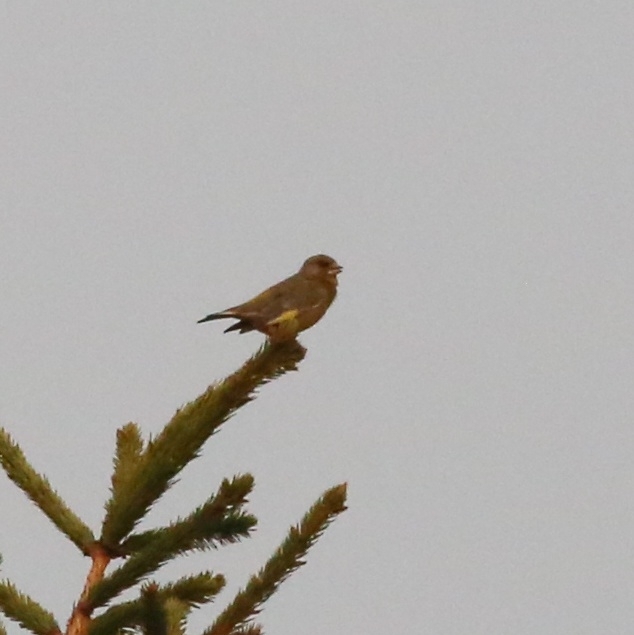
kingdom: Plantae
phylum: Tracheophyta
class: Liliopsida
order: Poales
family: Poaceae
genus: Chloris
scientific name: Chloris chloris
